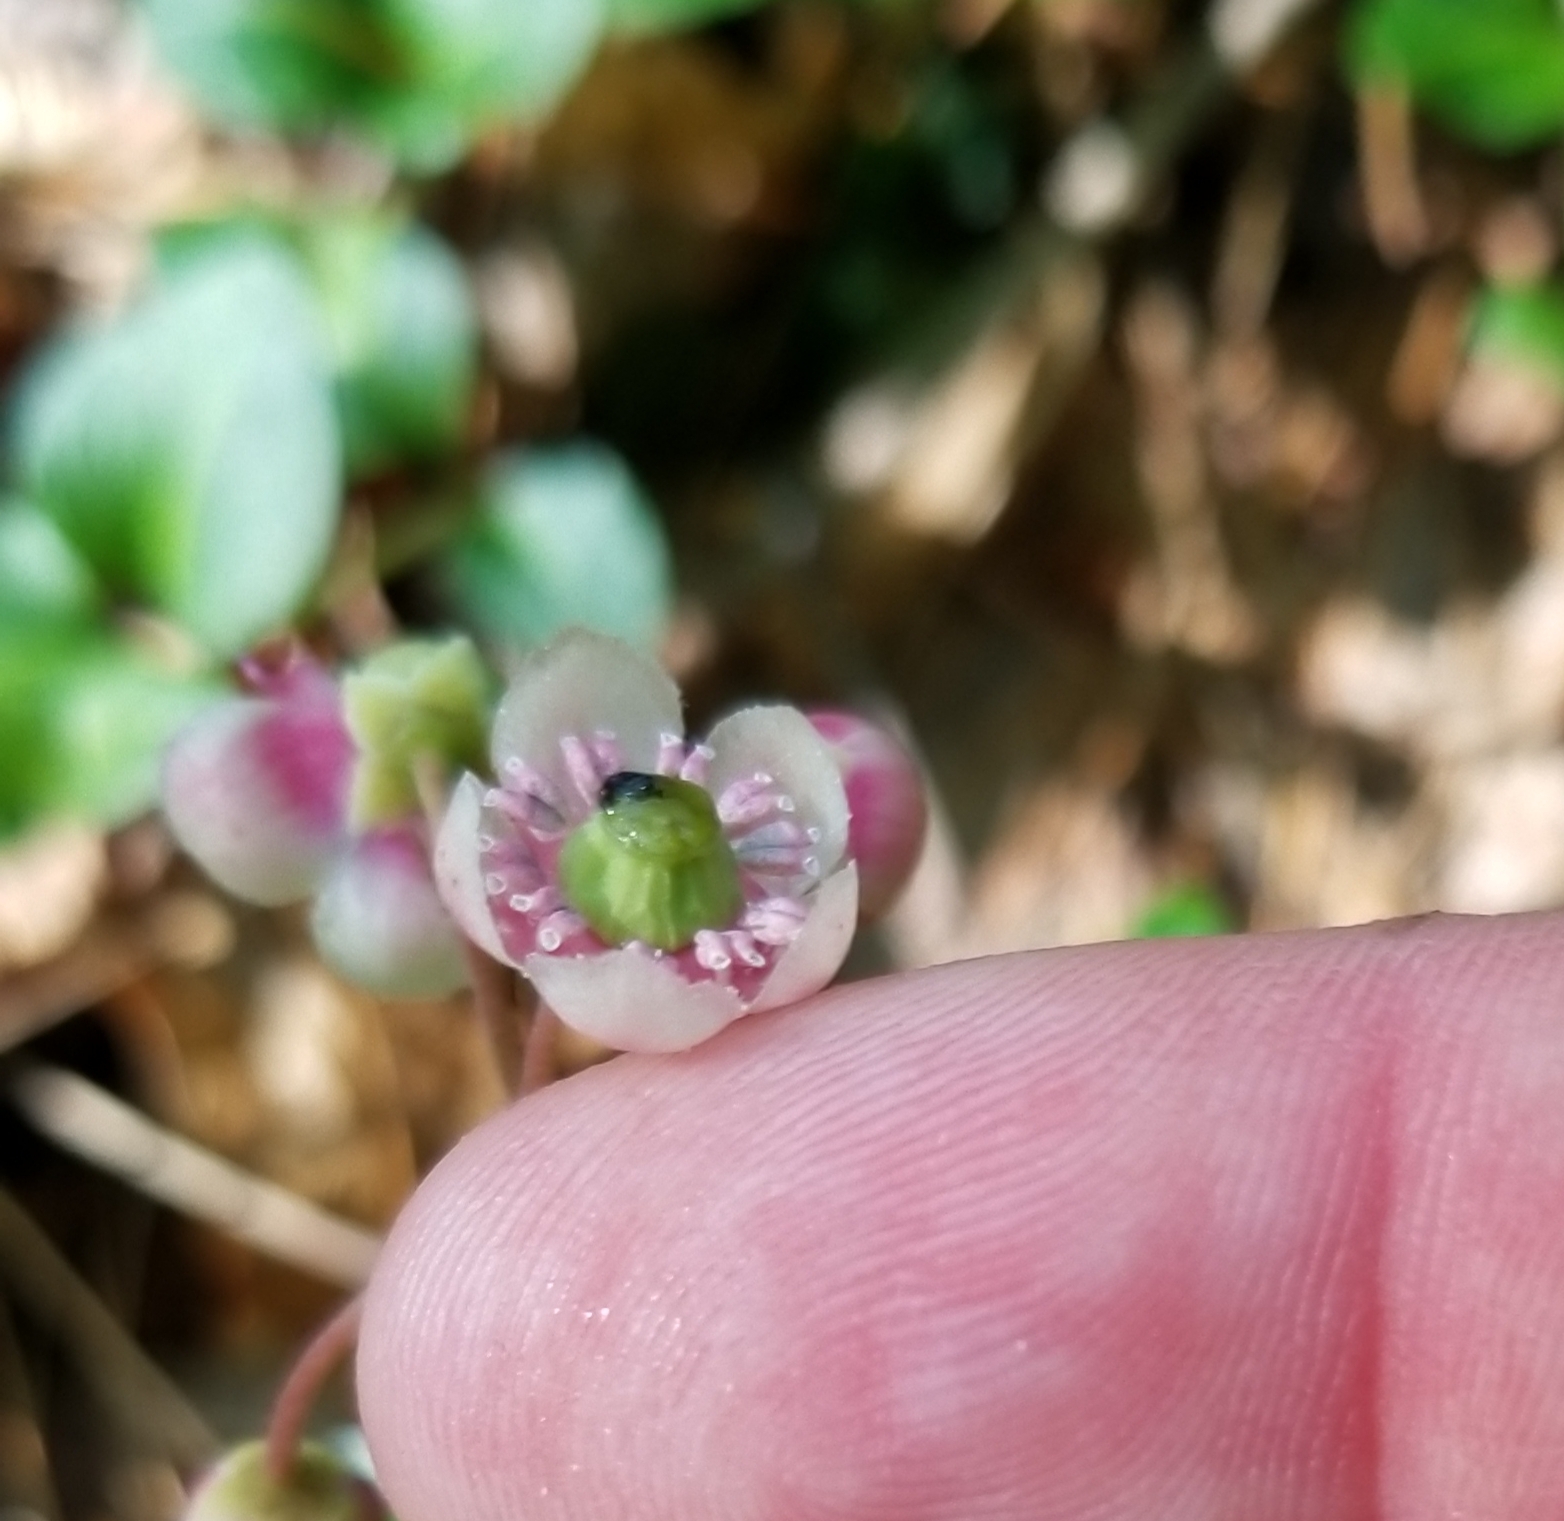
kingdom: Plantae
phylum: Tracheophyta
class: Magnoliopsida
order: Ericales
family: Ericaceae
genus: Chimaphila
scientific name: Chimaphila umbellata
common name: Pipsissewa
